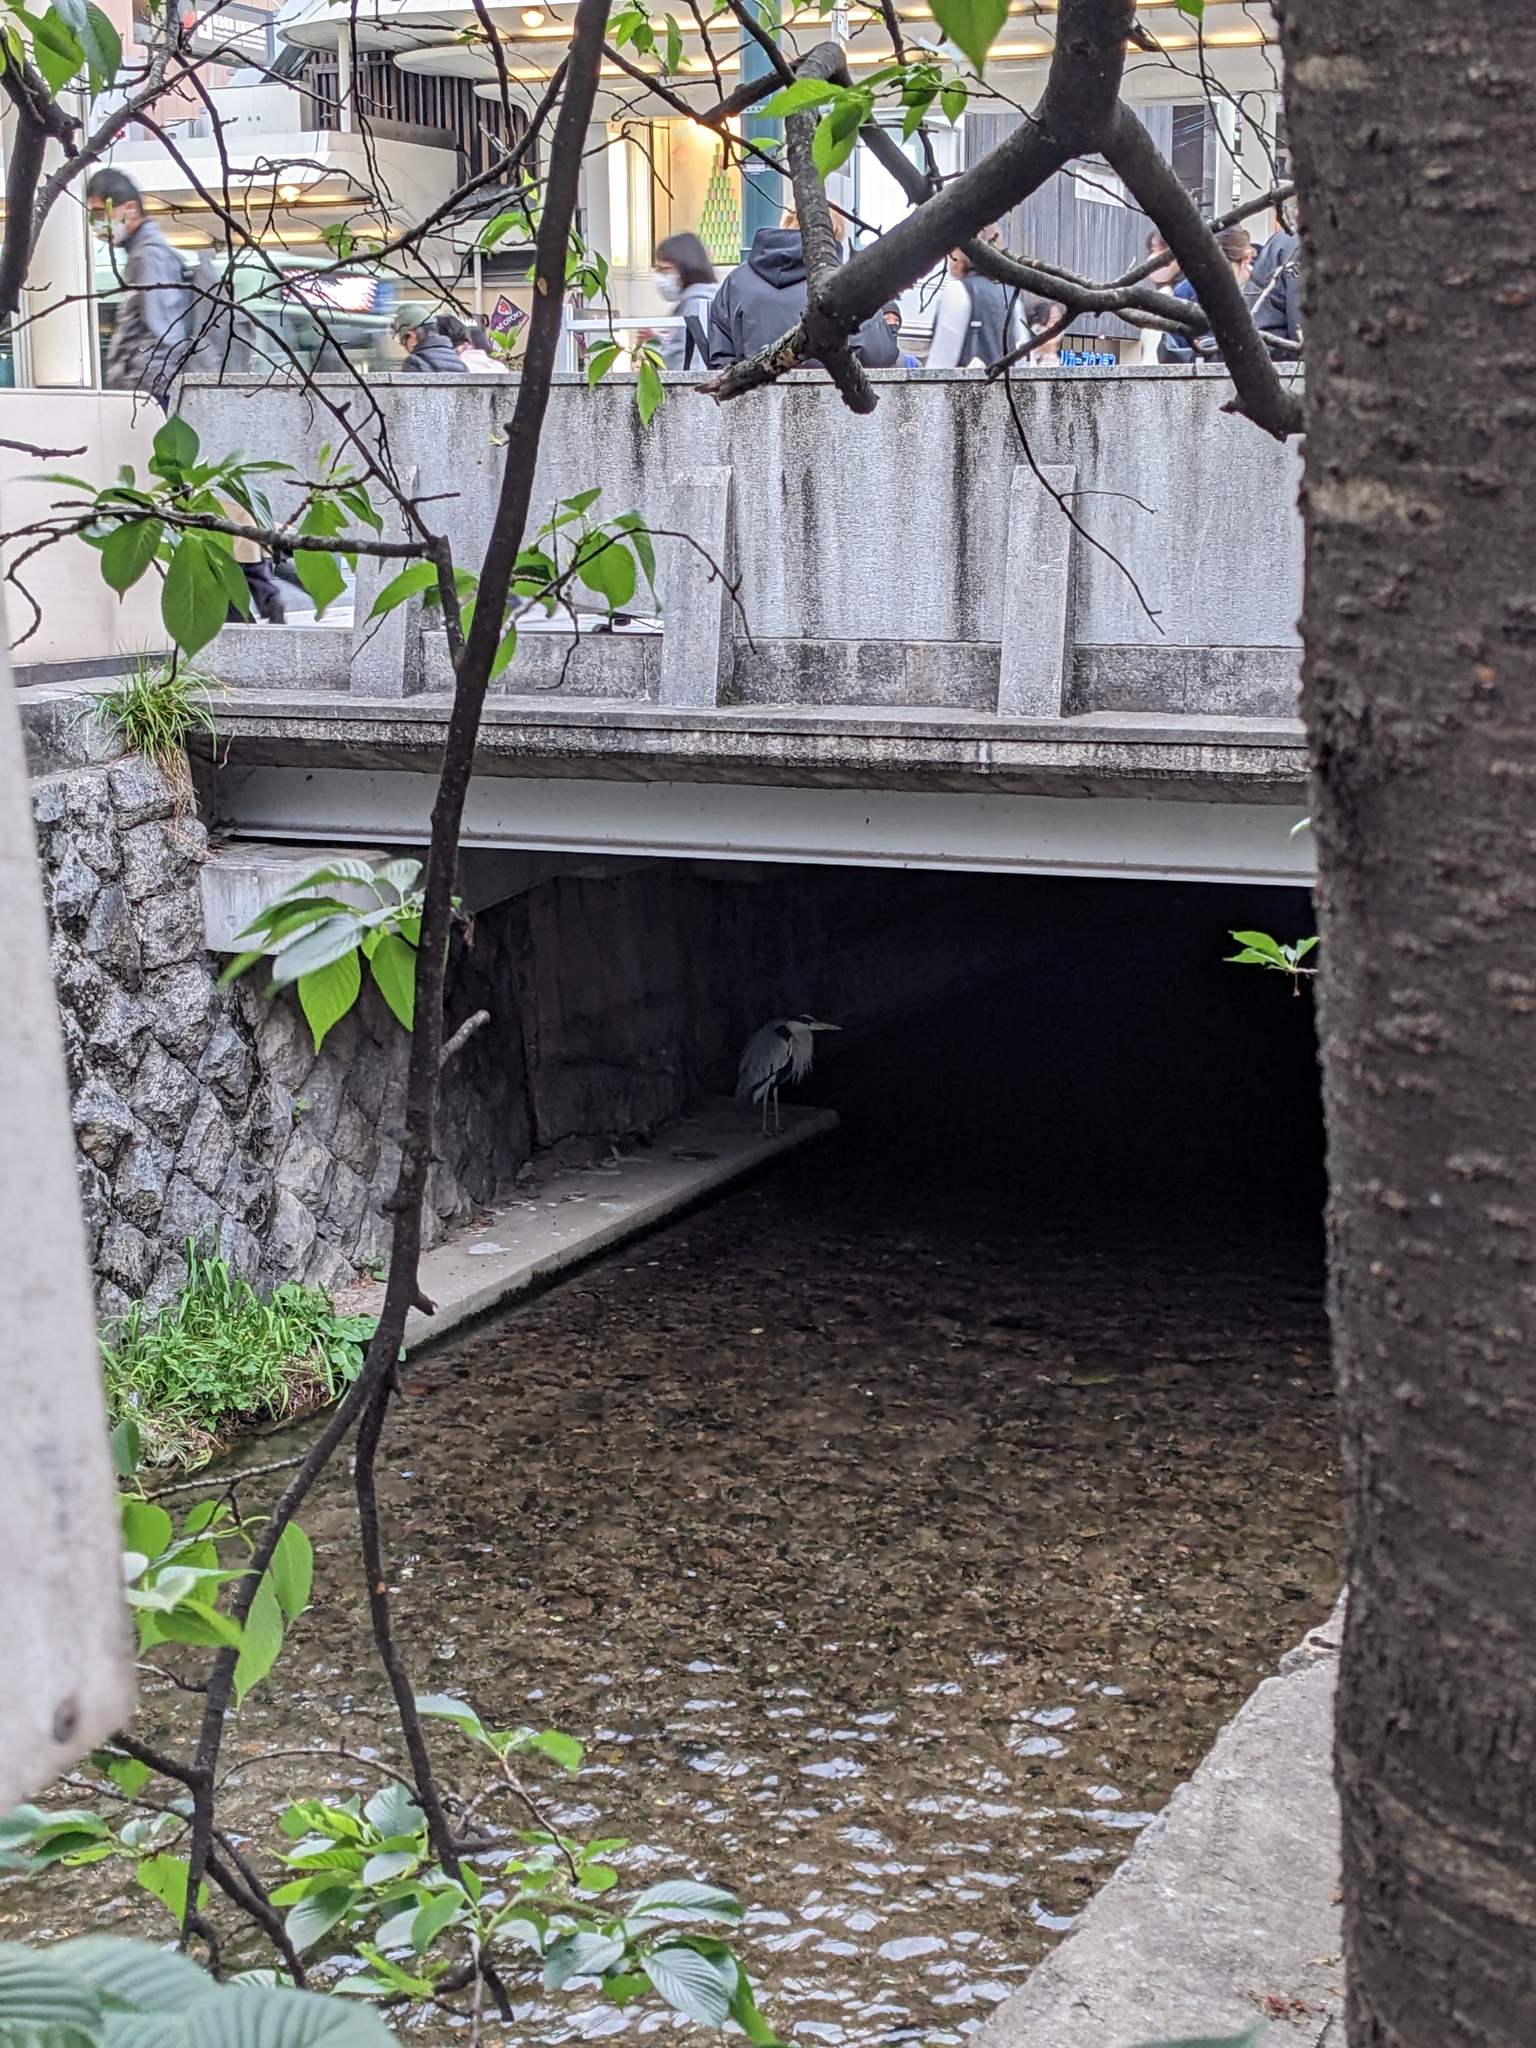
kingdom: Animalia
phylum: Chordata
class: Aves
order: Pelecaniformes
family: Ardeidae
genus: Ardea
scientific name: Ardea cinerea
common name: Grey heron
